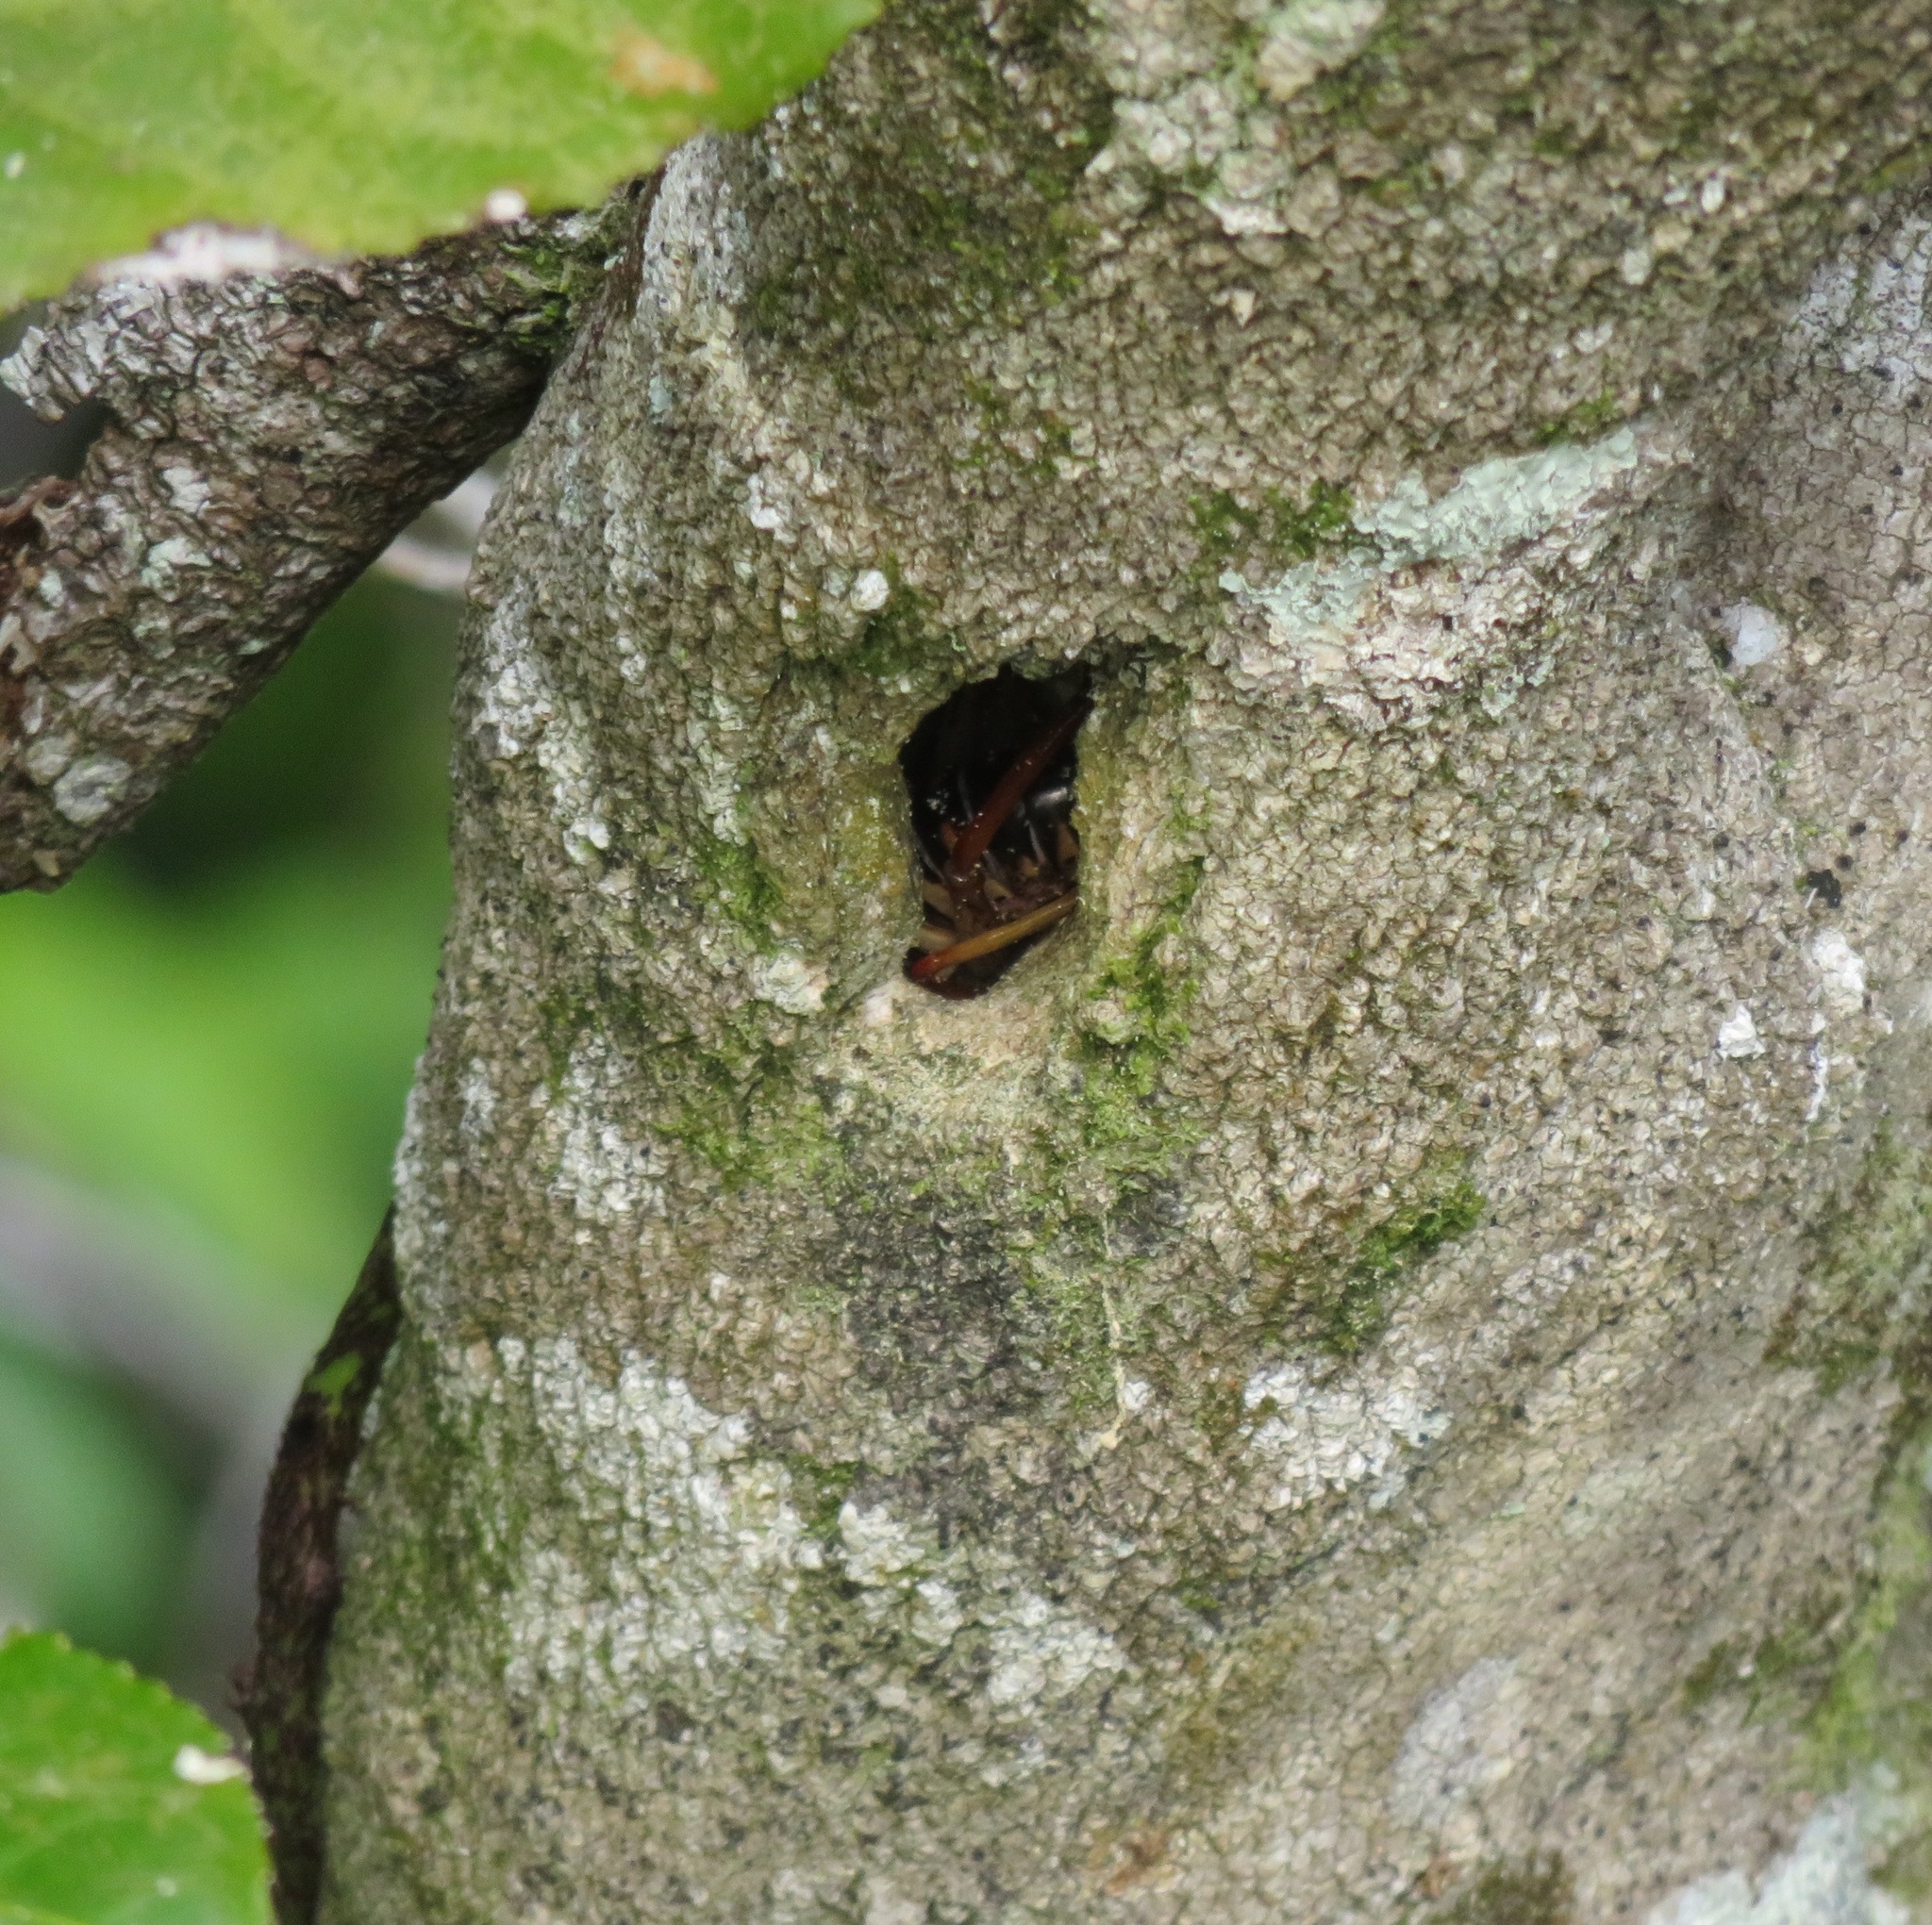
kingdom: Animalia
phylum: Arthropoda
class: Insecta
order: Orthoptera
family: Anostostomatidae
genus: Hemideina
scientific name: Hemideina crassidens
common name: Wellington tree weta
